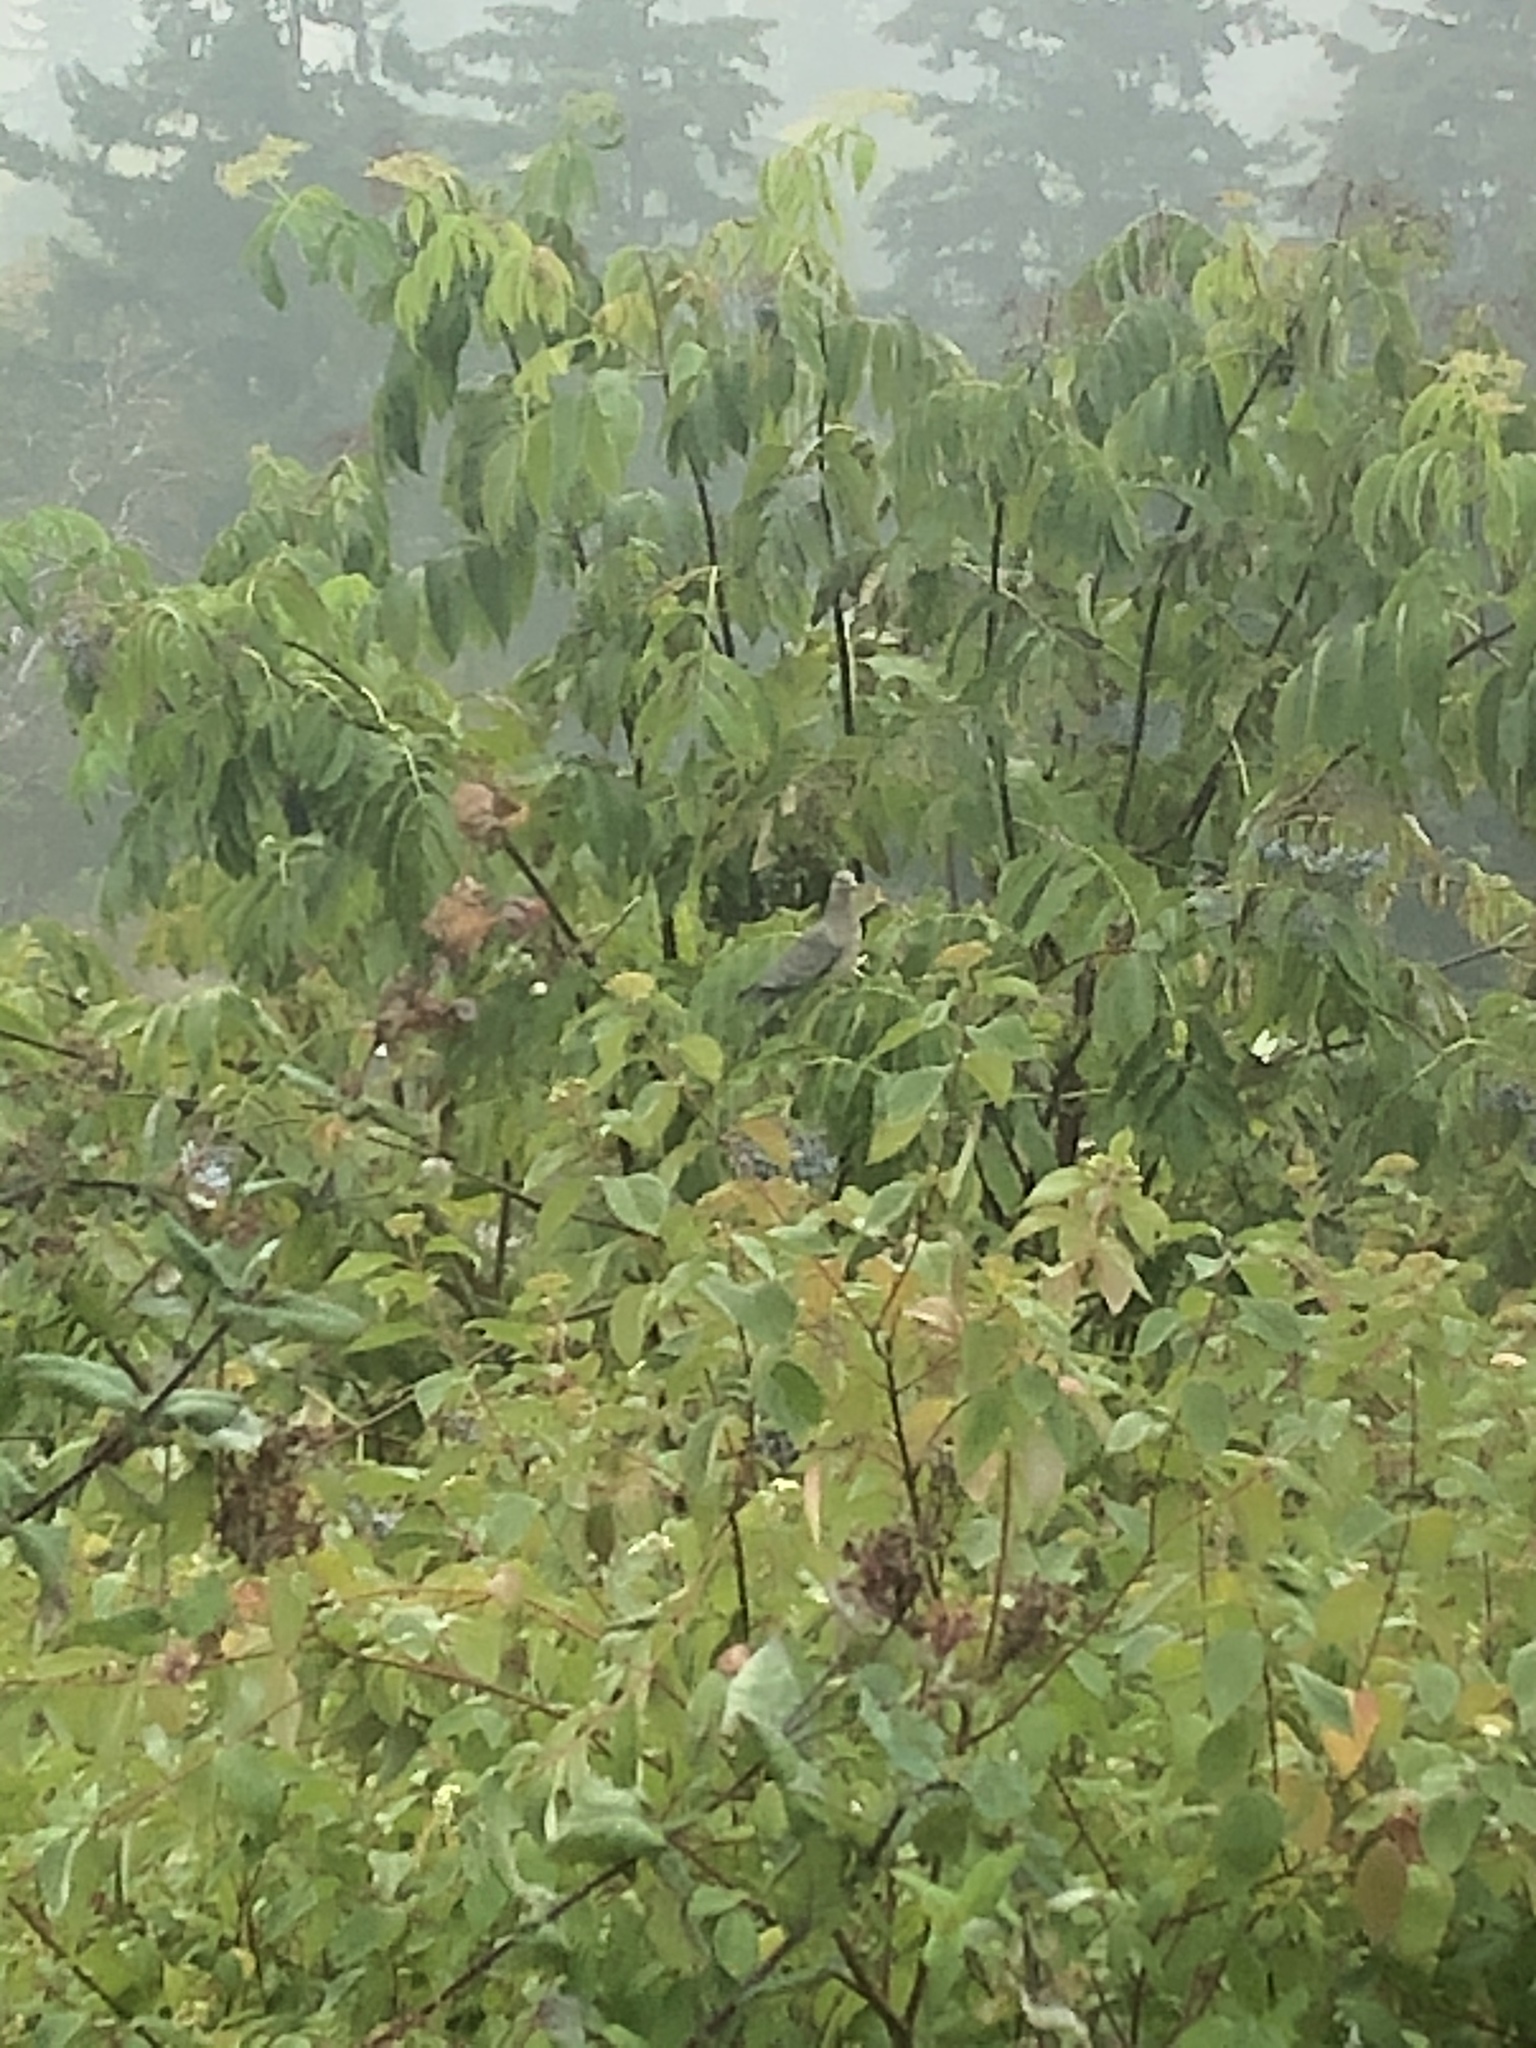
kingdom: Animalia
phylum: Chordata
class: Aves
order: Columbiformes
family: Columbidae
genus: Patagioenas
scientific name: Patagioenas fasciata
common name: Band-tailed pigeon
